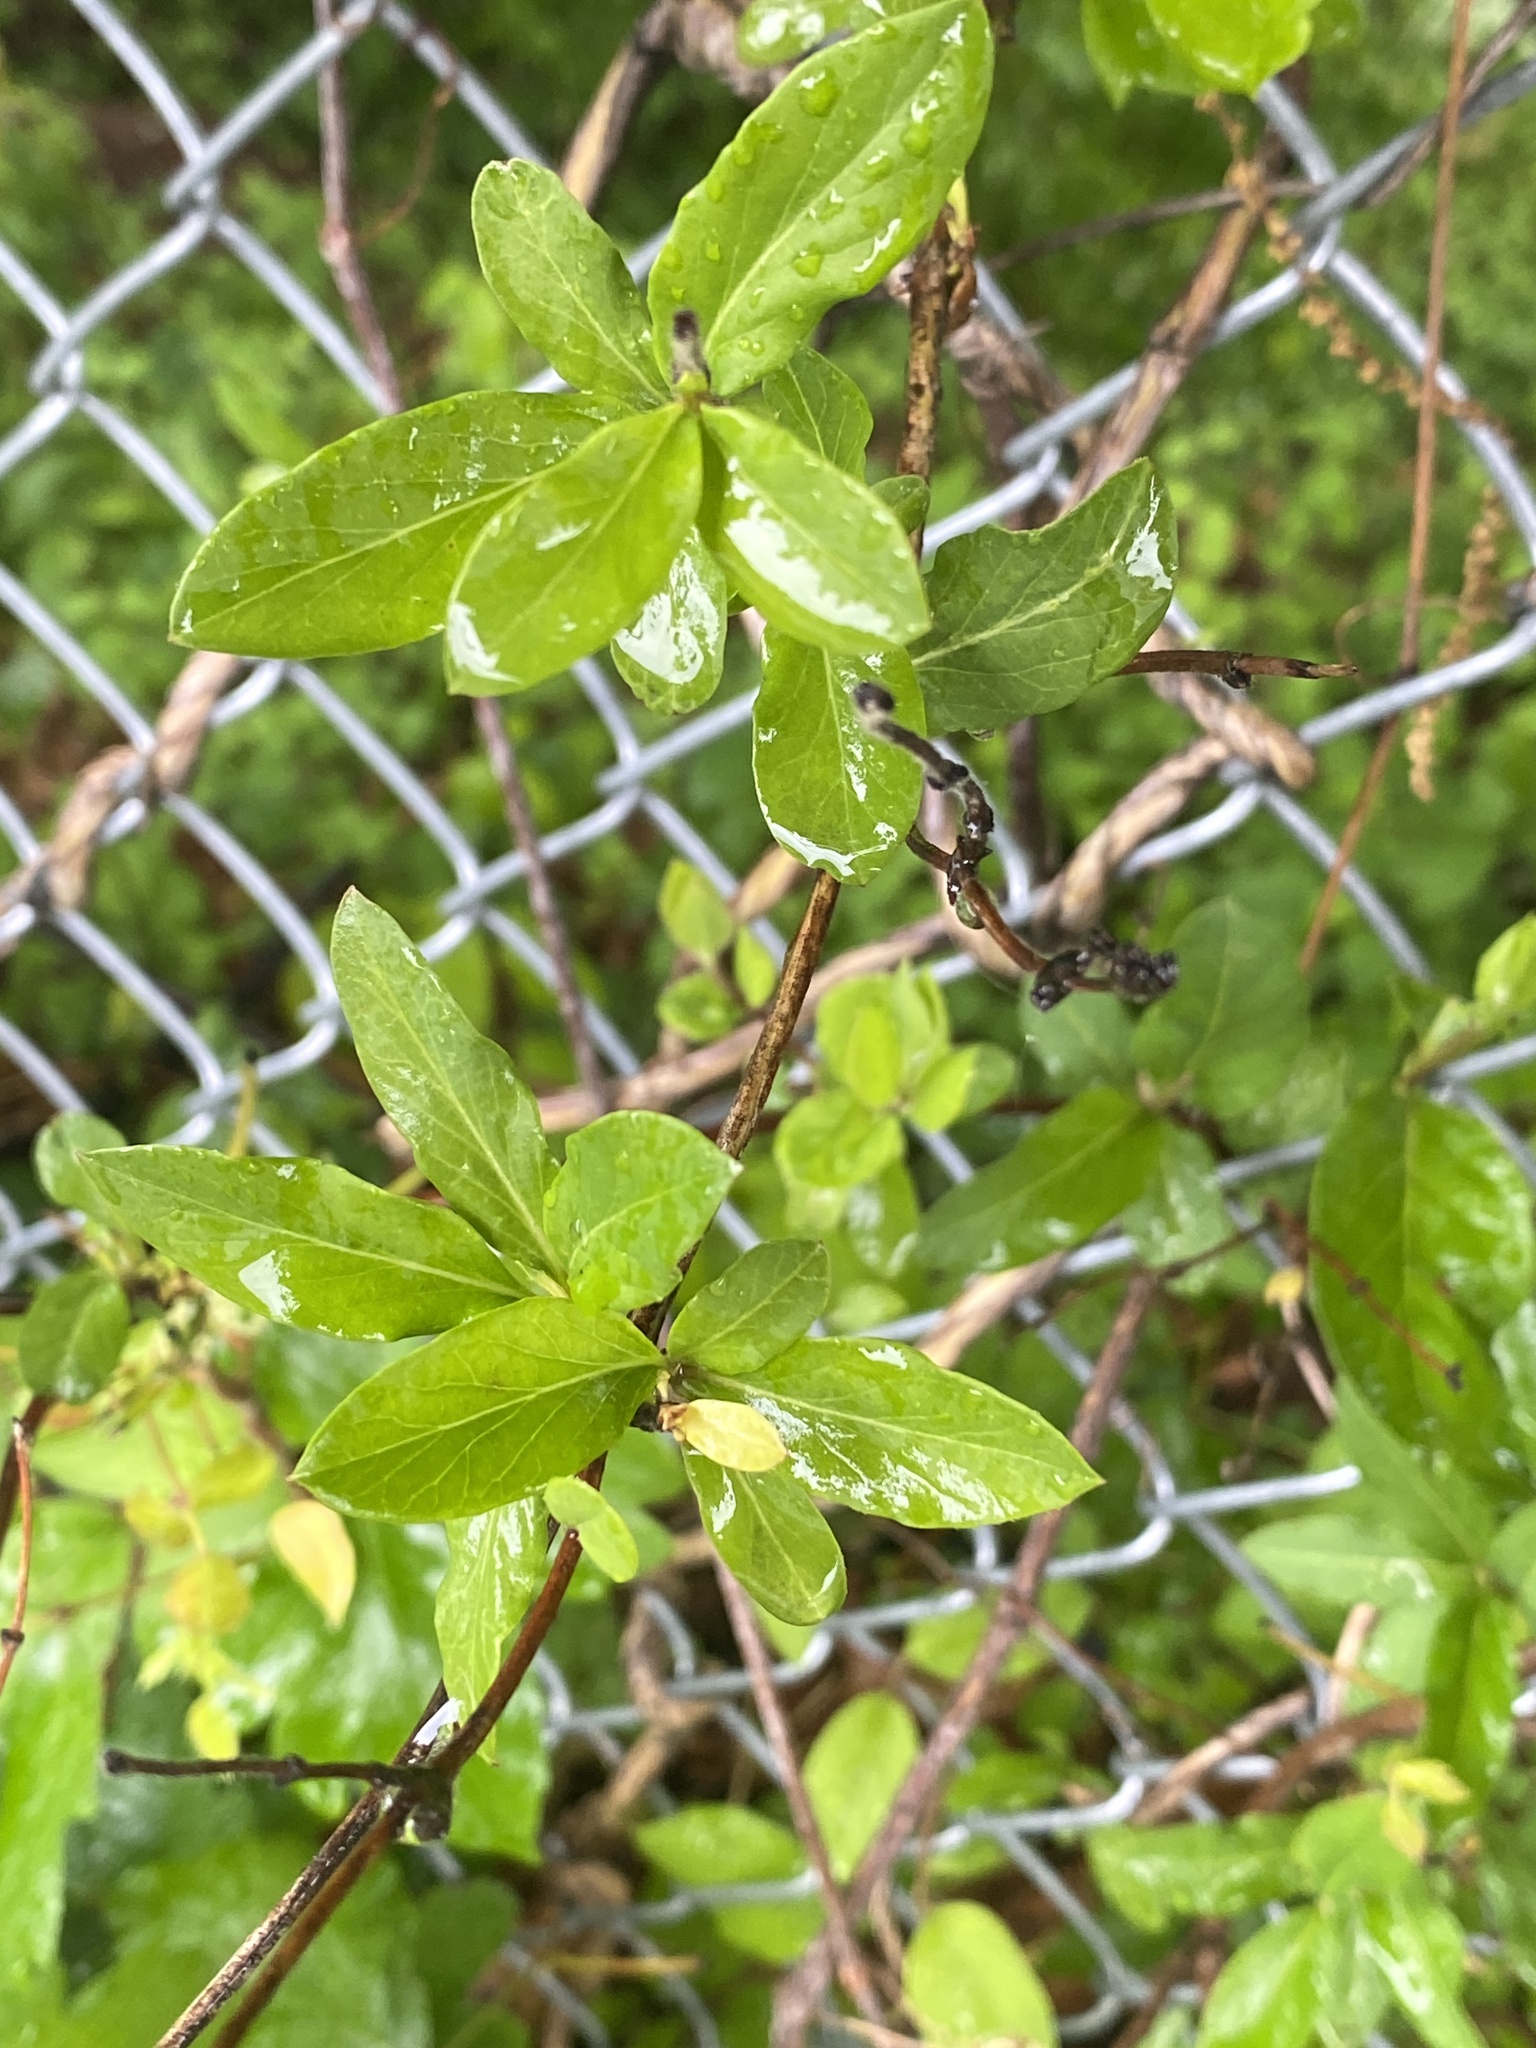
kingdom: Plantae
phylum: Tracheophyta
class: Magnoliopsida
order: Dipsacales
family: Caprifoliaceae
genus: Lonicera
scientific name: Lonicera japonica
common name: Japanese honeysuckle
